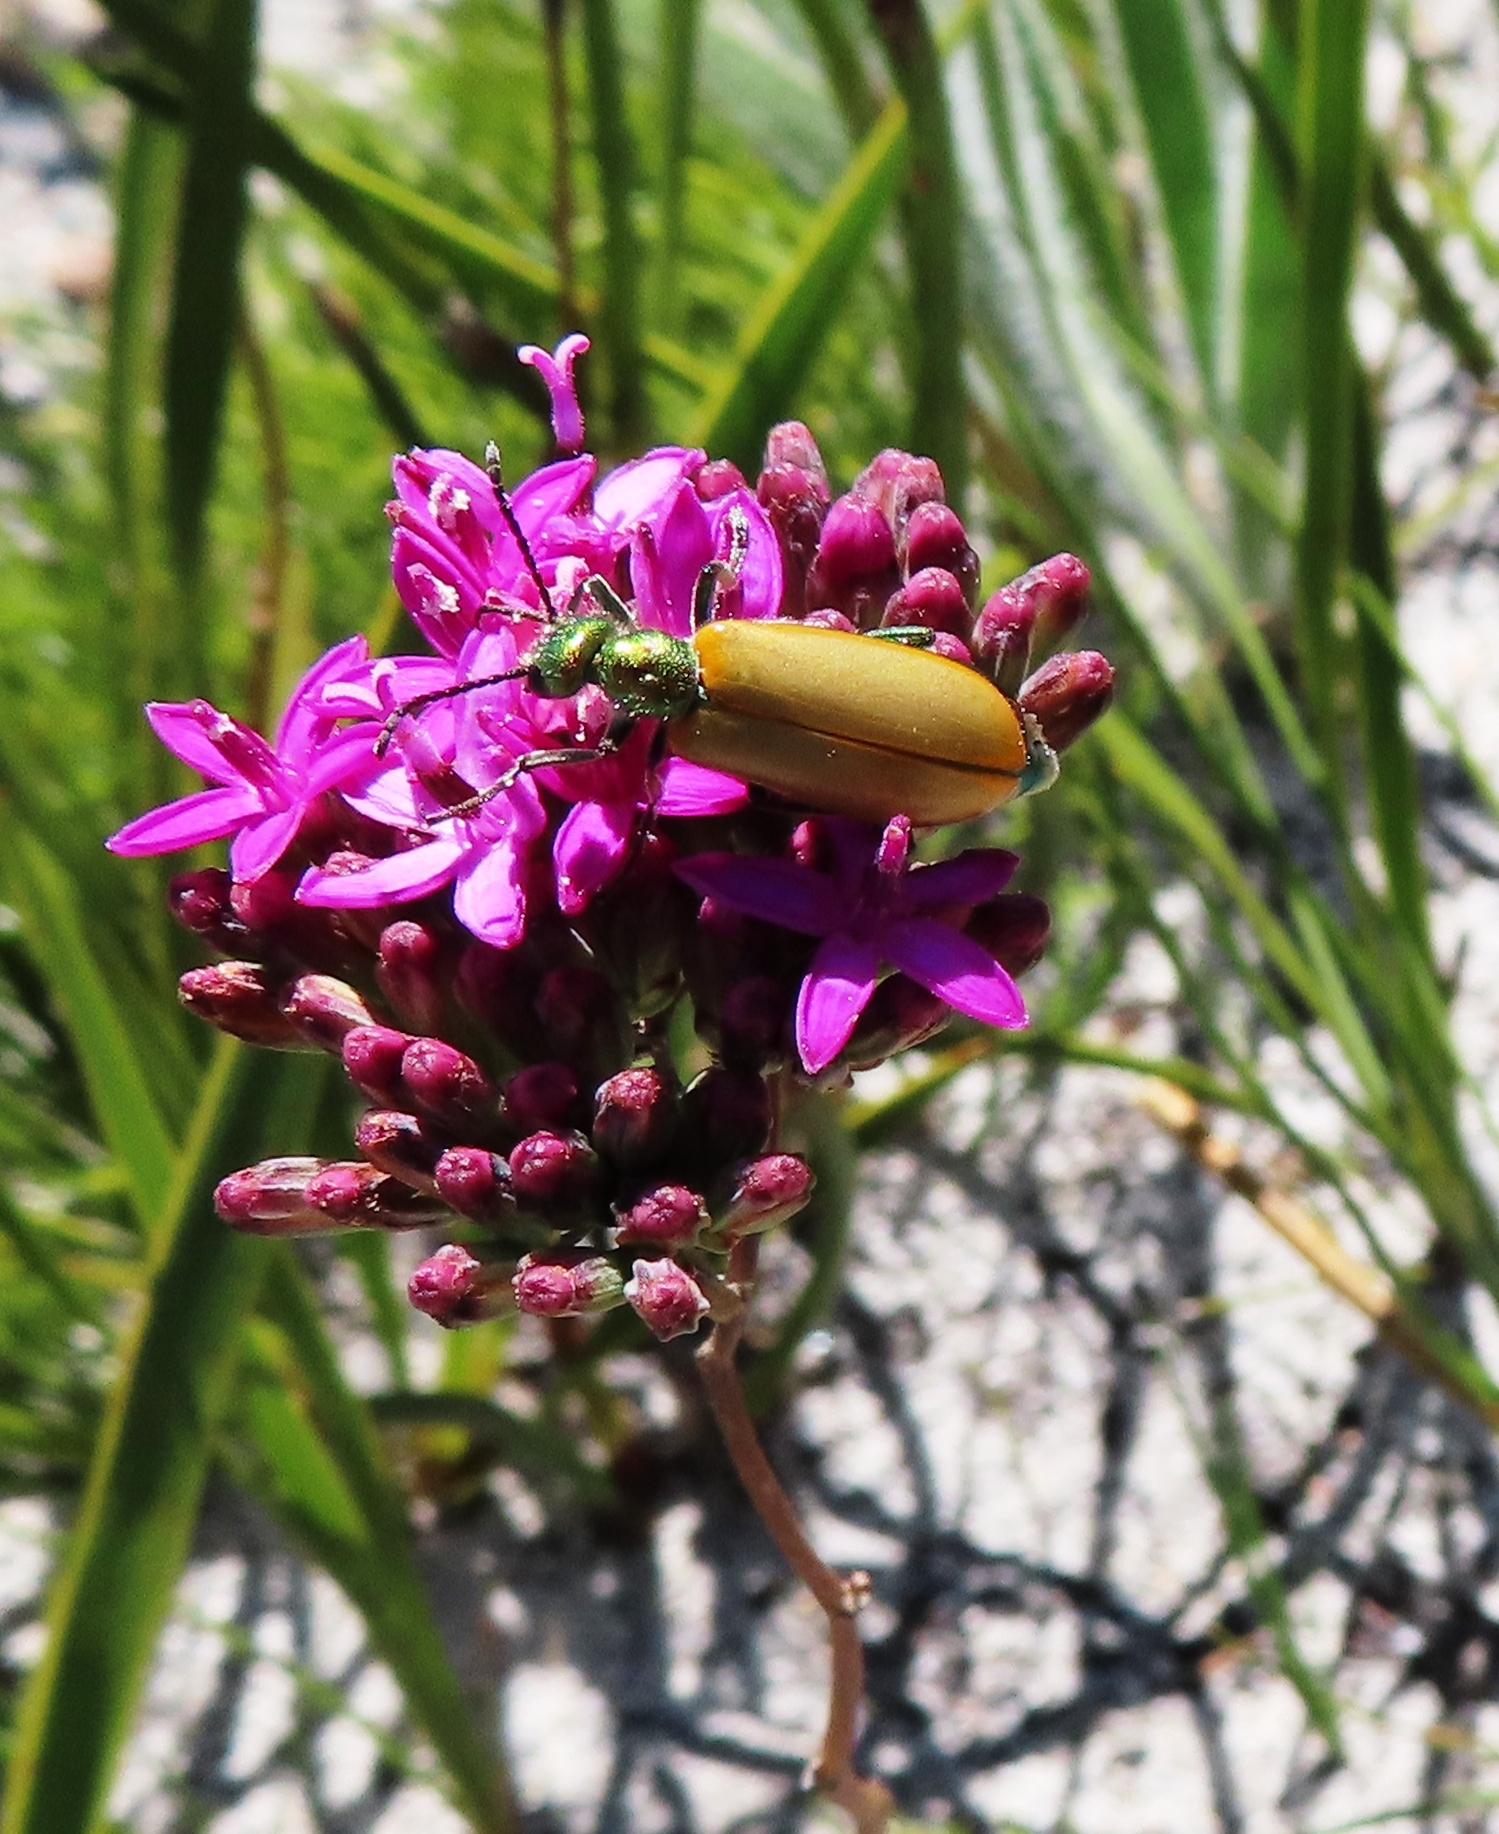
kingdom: Animalia
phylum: Arthropoda
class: Insecta
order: Coleoptera
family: Meloidae
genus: Prolytta
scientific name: Prolytta
